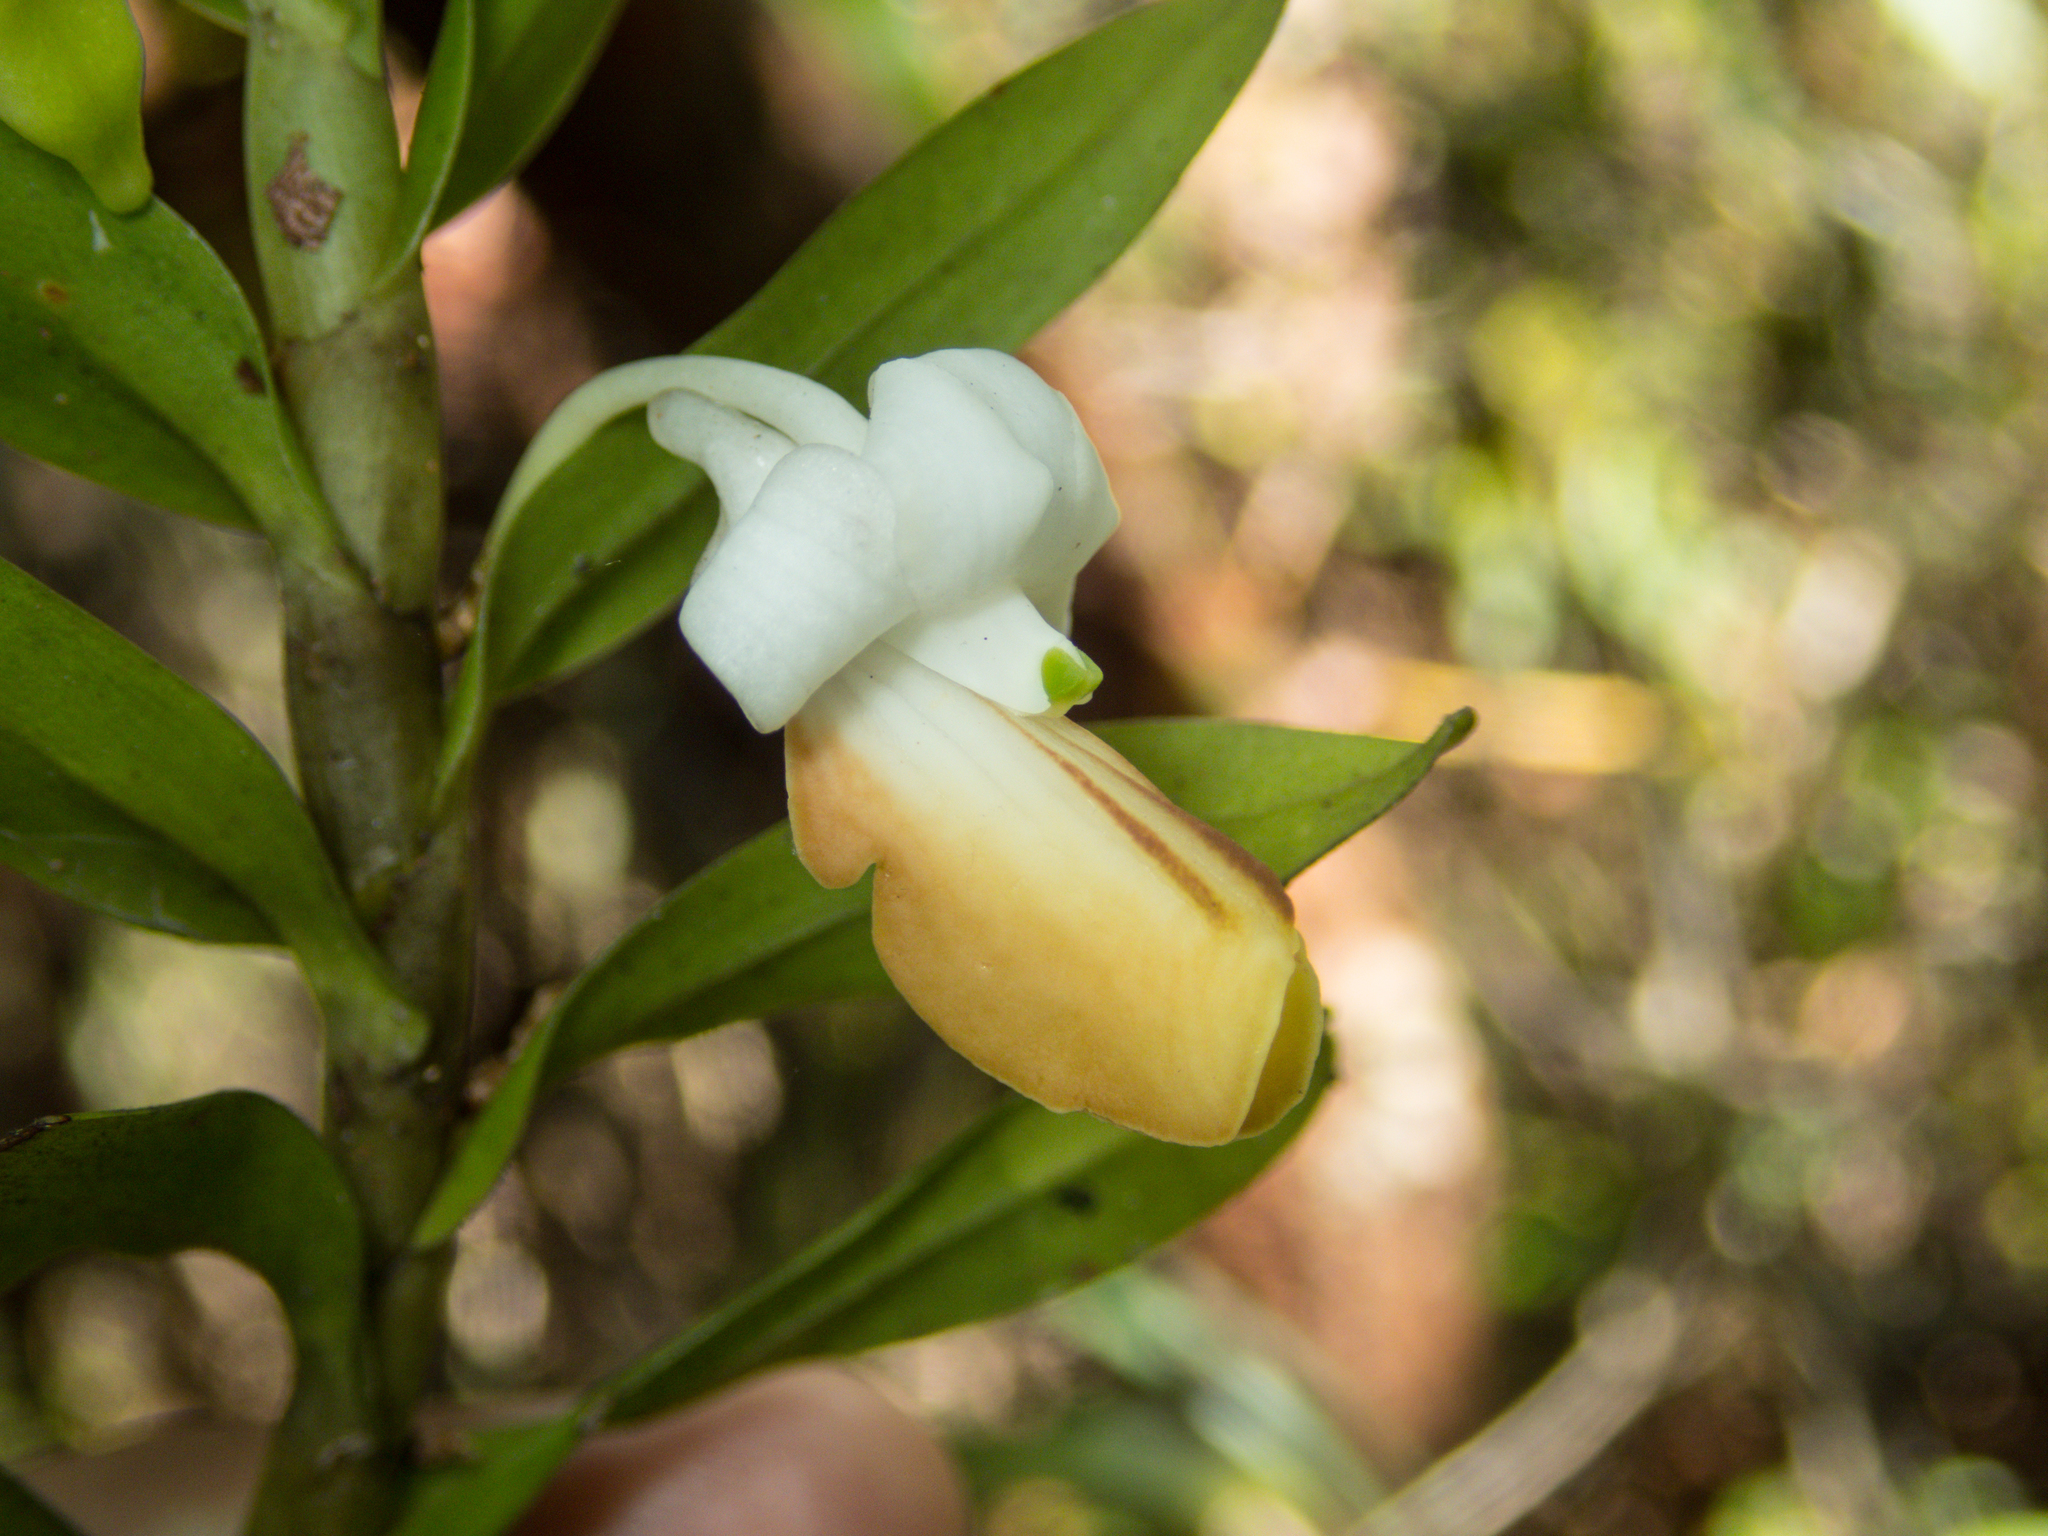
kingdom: Plantae
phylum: Tracheophyta
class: Liliopsida
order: Asparagales
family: Orchidaceae
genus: Dendrobium
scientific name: Dendrobium ellipsophyllum
